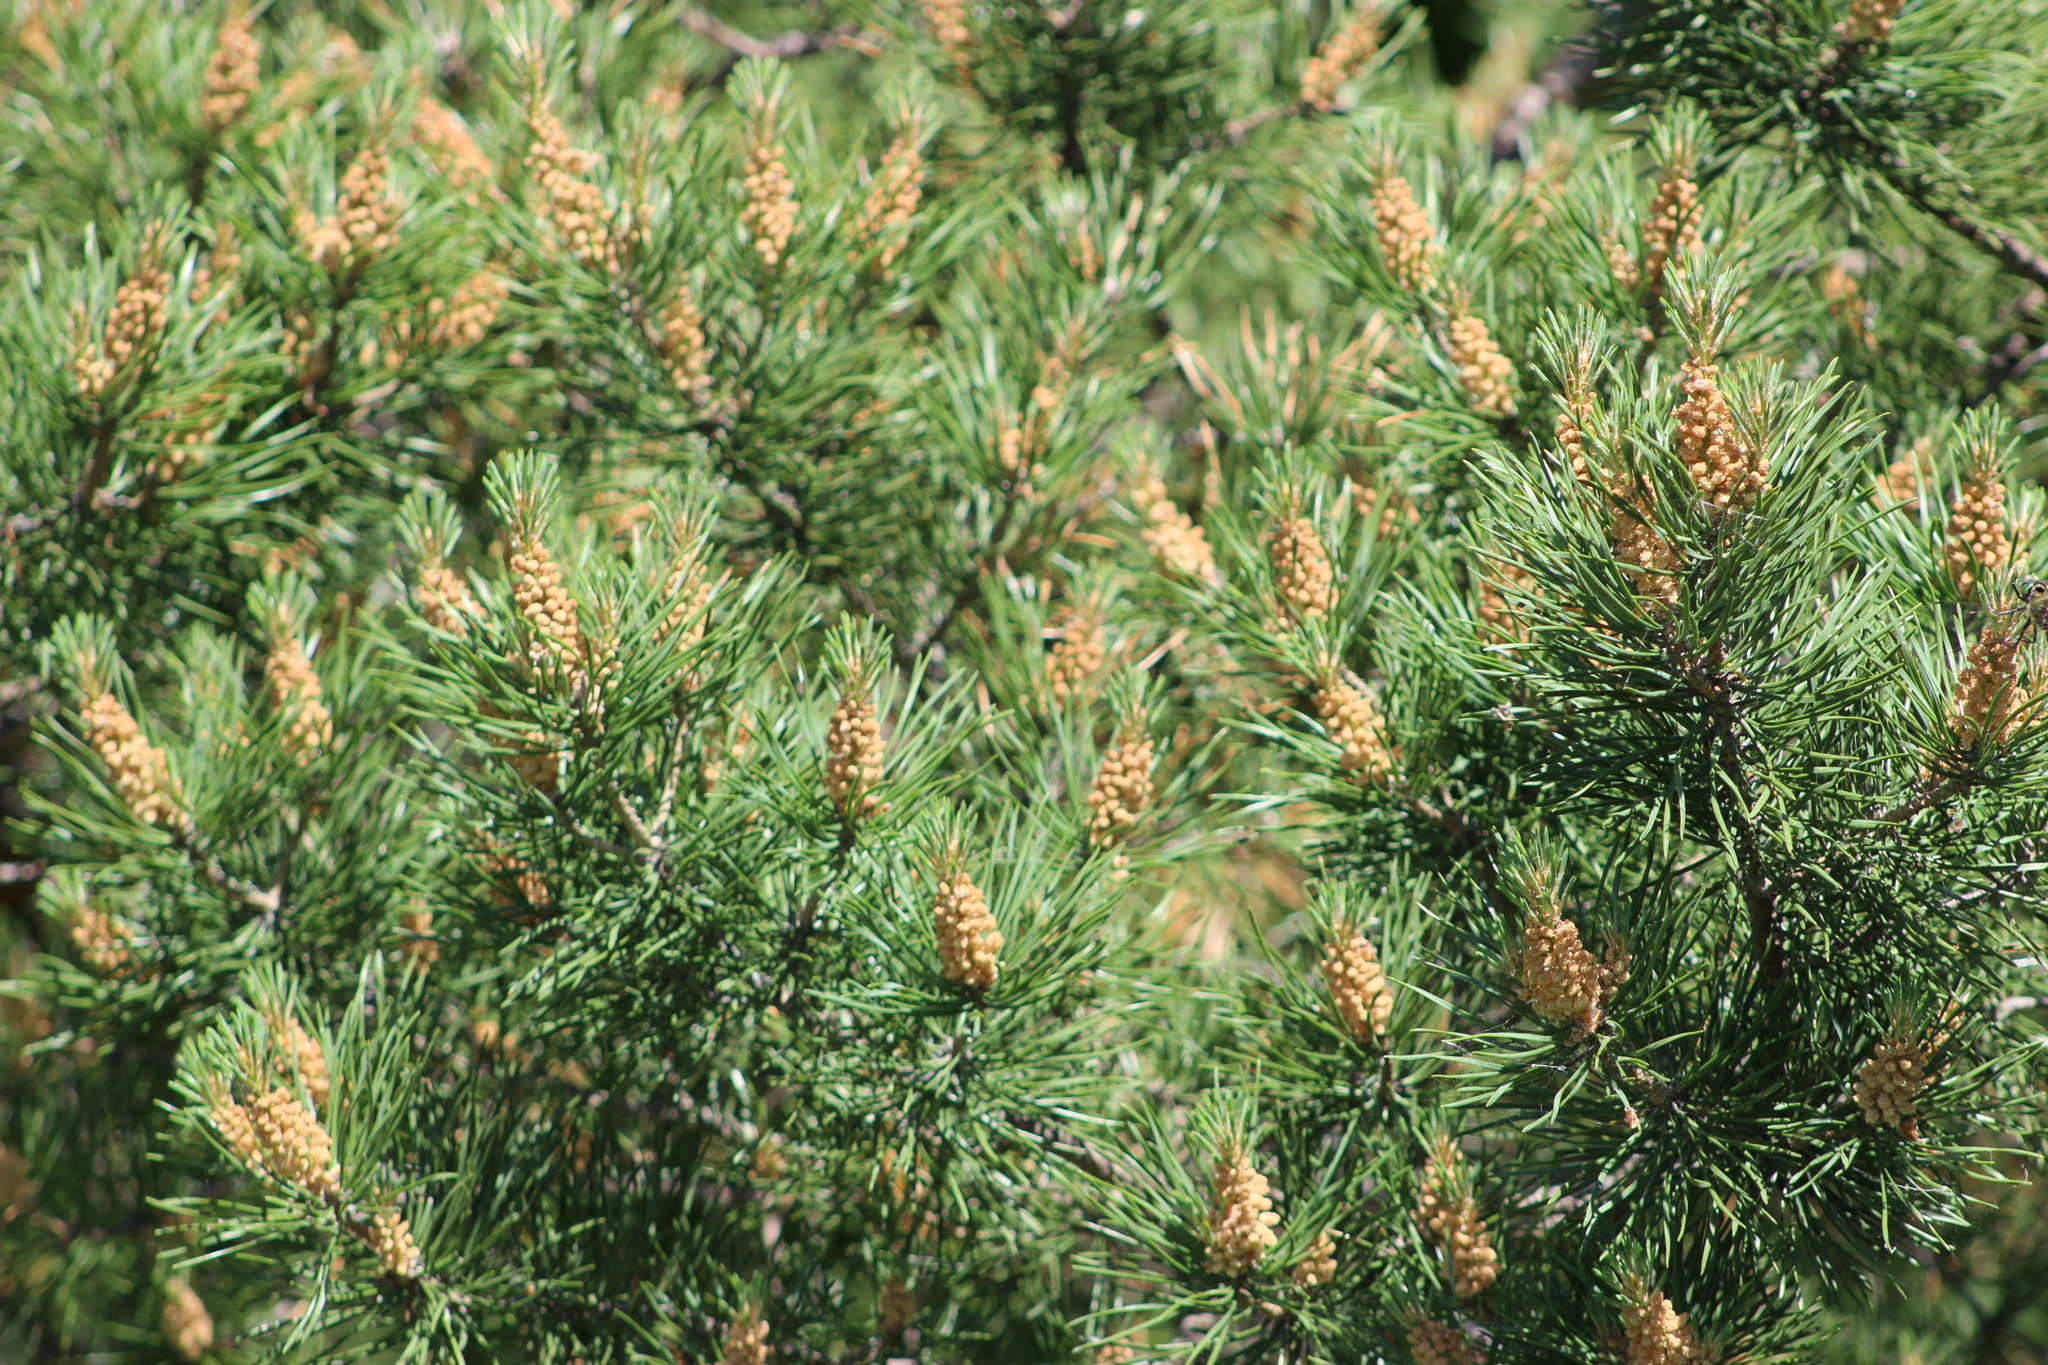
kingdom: Plantae
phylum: Tracheophyta
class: Pinopsida
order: Pinales
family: Pinaceae
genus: Pinus
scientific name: Pinus sylvestris
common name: Scots pine
